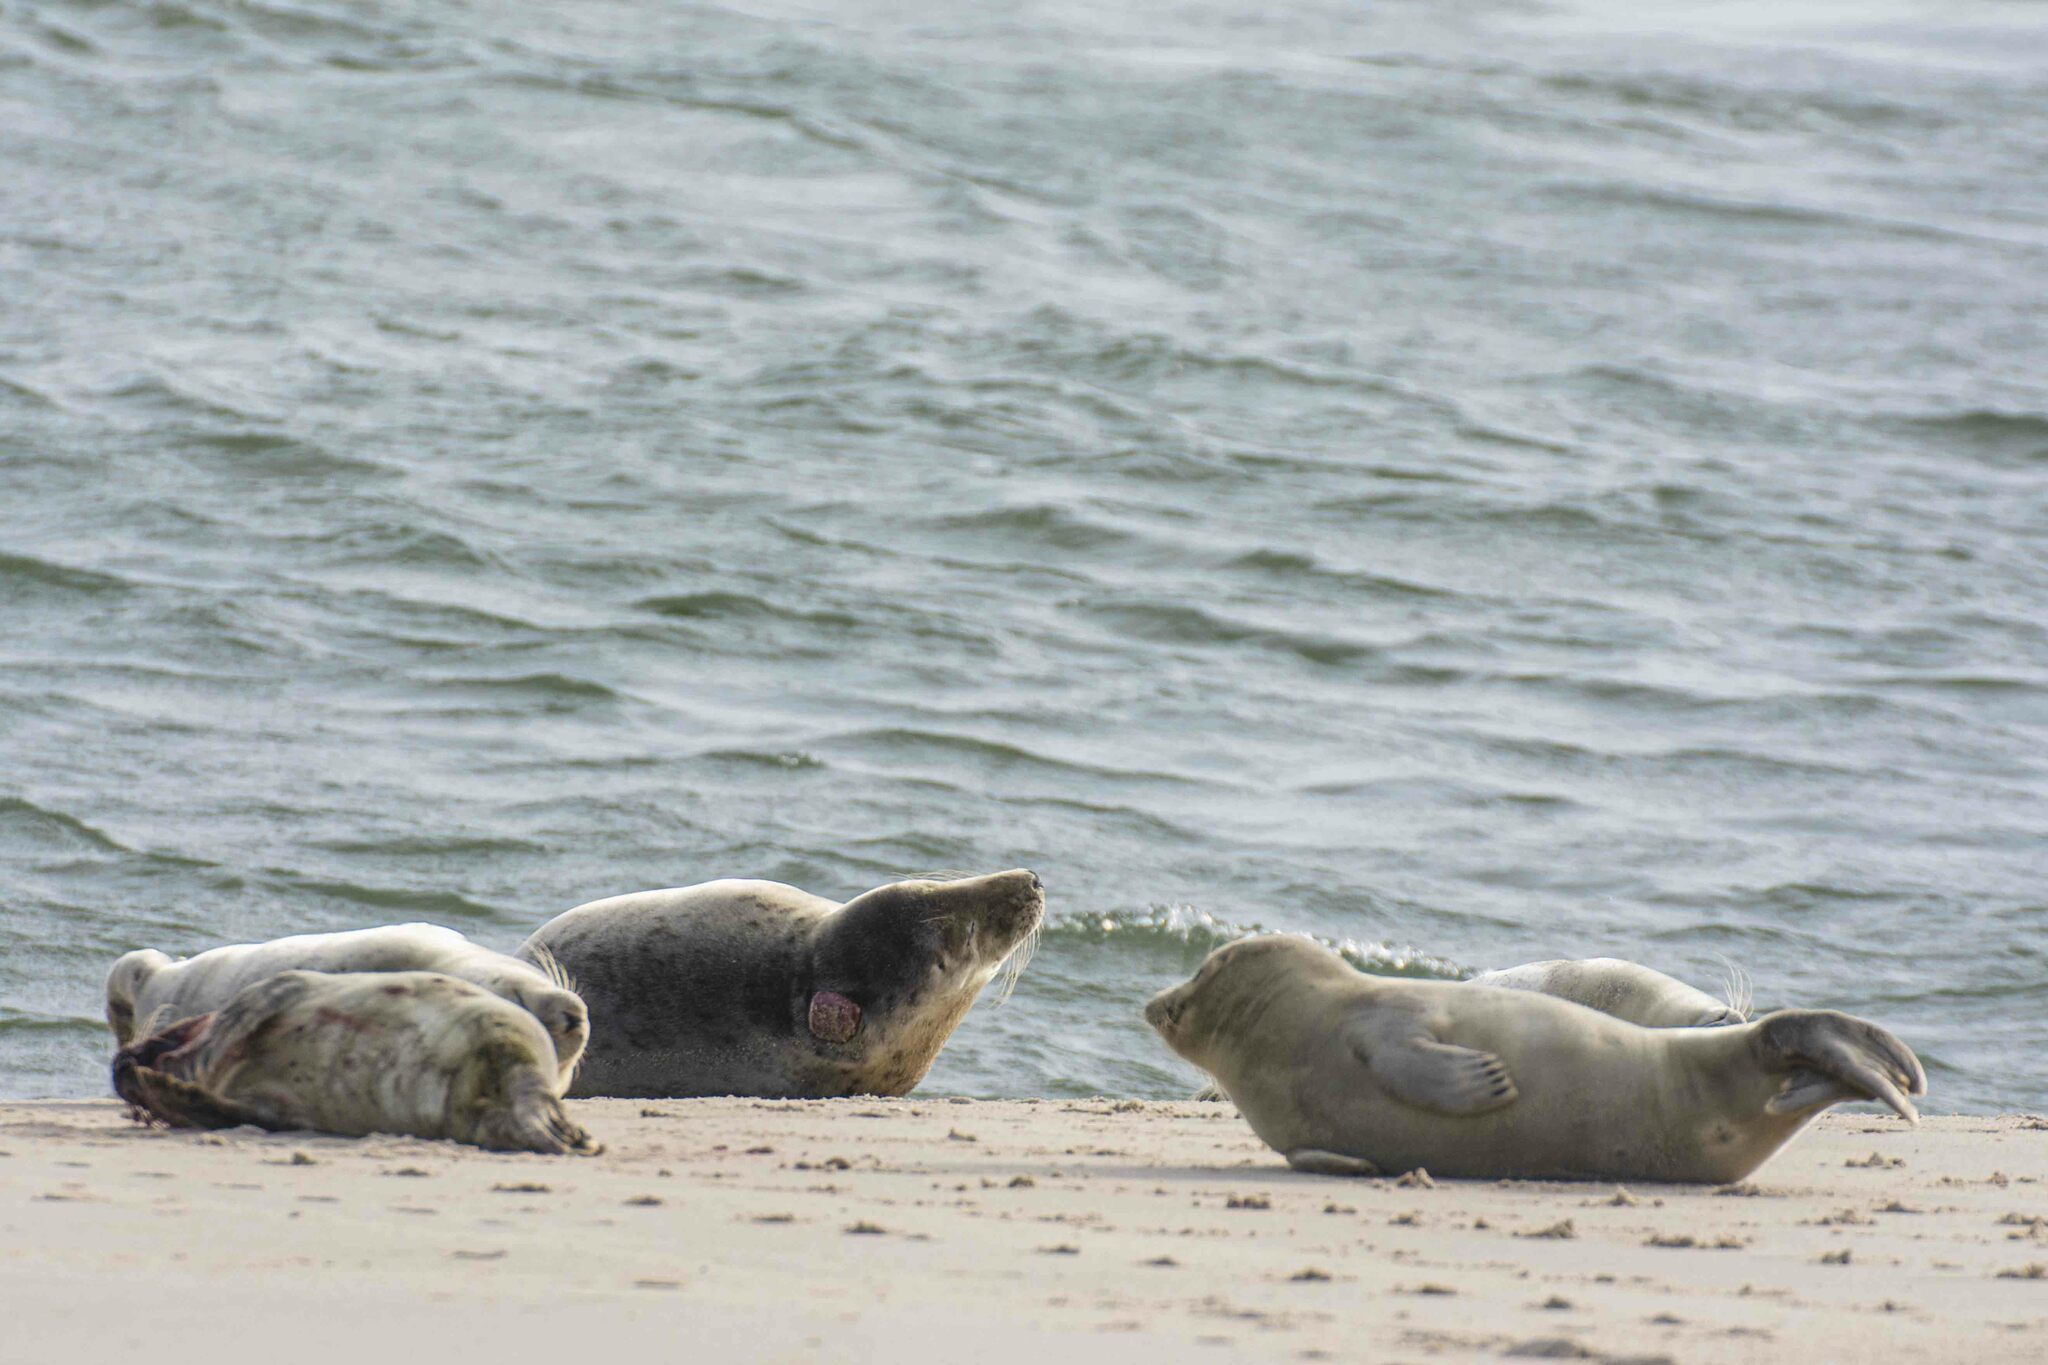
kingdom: Animalia
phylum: Chordata
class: Mammalia
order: Carnivora
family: Phocidae
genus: Halichoerus
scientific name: Halichoerus grypus
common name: Grey seal
